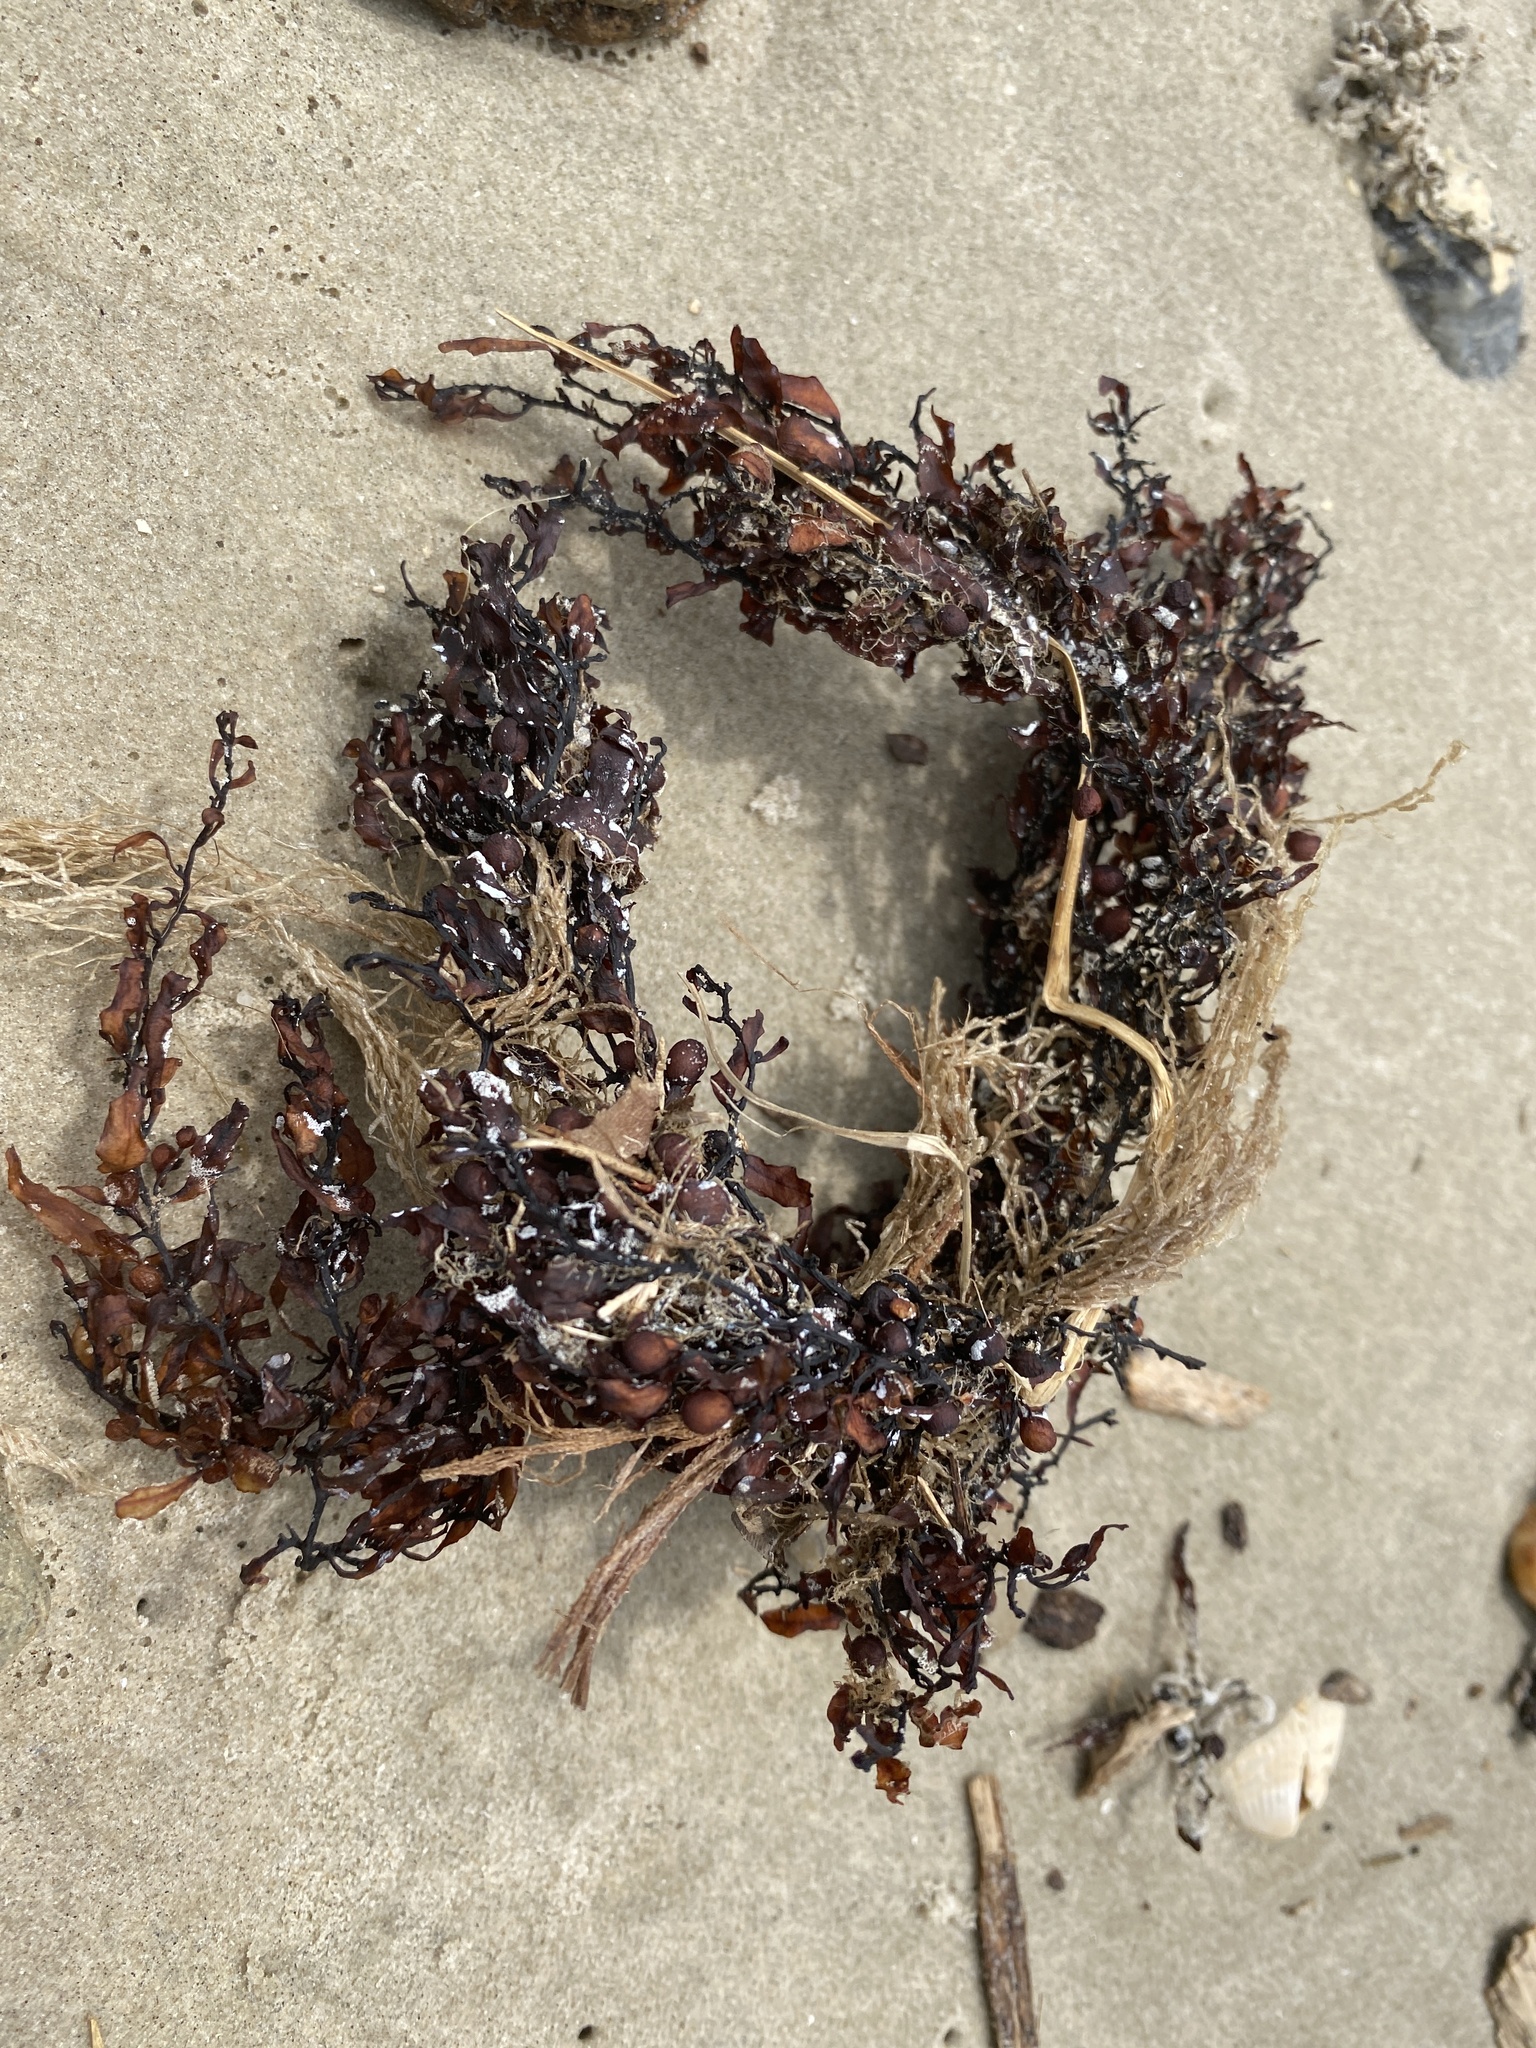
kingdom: Chromista
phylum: Ochrophyta
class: Phaeophyceae
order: Fucales
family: Sargassaceae
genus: Sargassum
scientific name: Sargassum fluitans
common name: Sargassum seaweed
